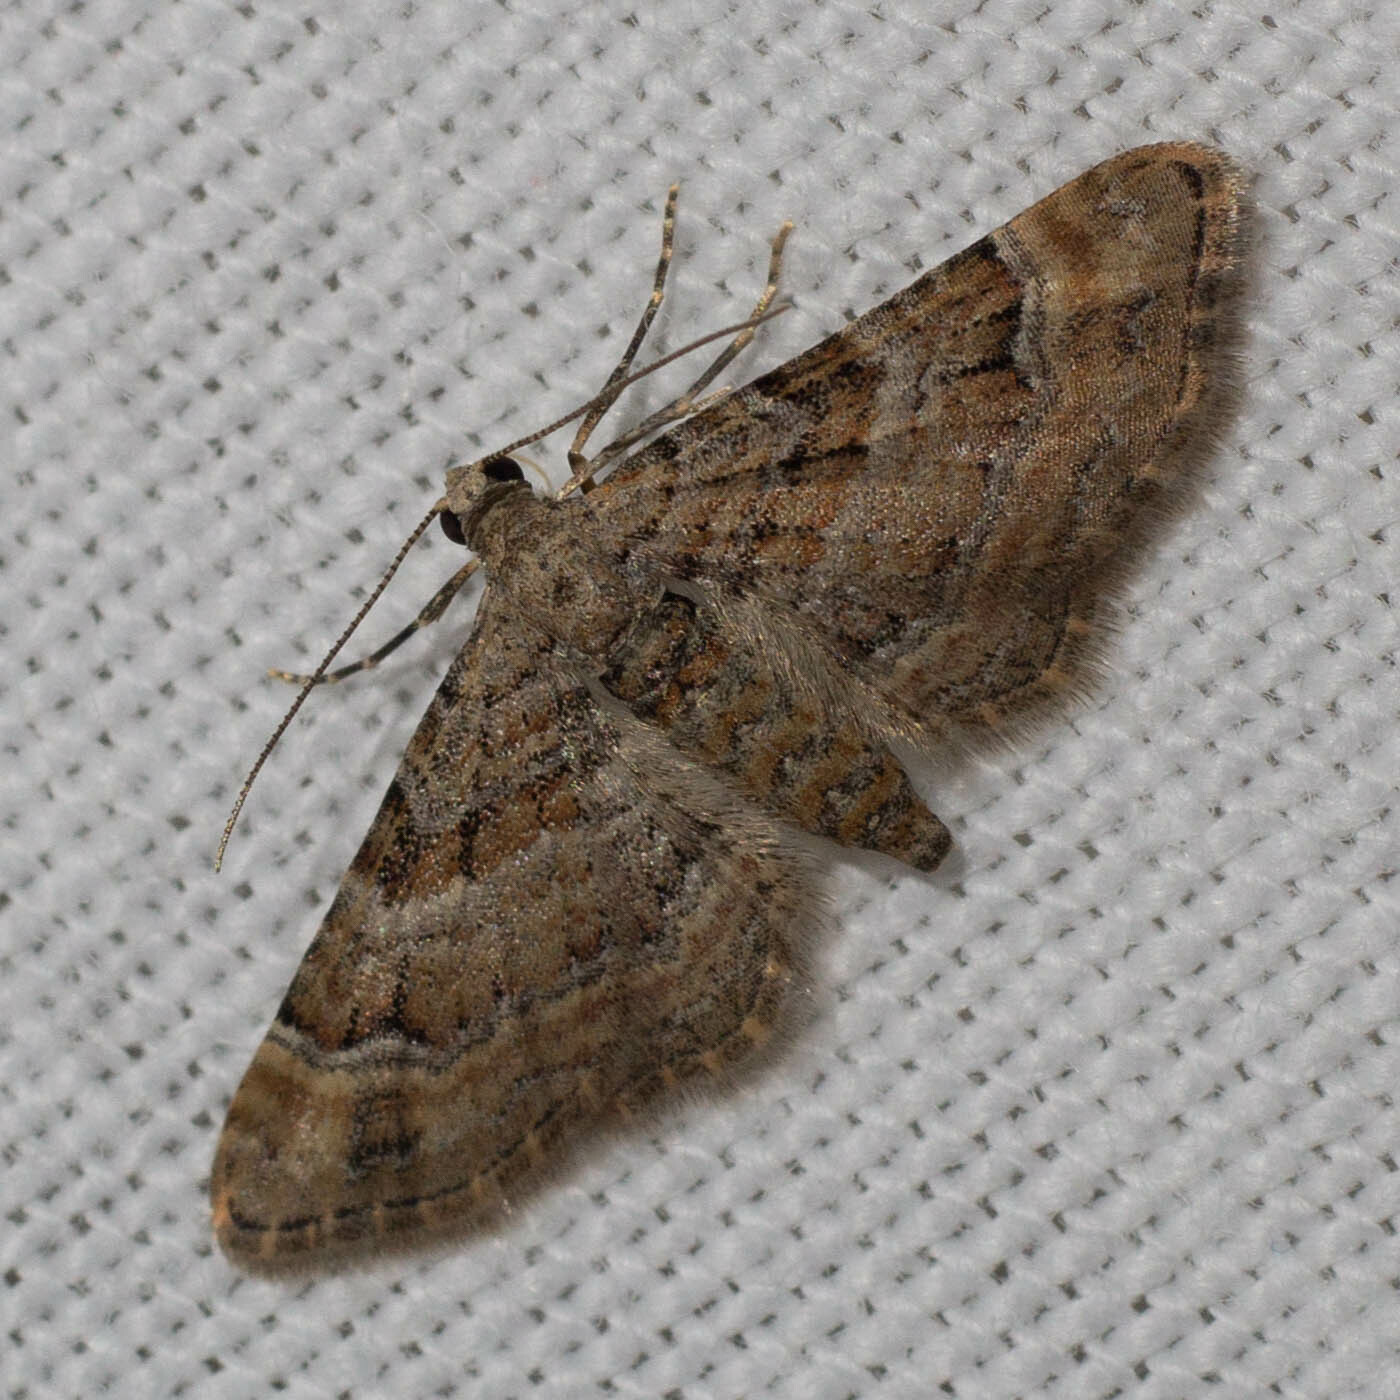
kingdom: Animalia
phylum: Arthropoda
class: Insecta
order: Lepidoptera
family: Geometridae
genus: Gymnoscelis
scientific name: Gymnoscelis rufifasciata
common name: Double-striped pug
